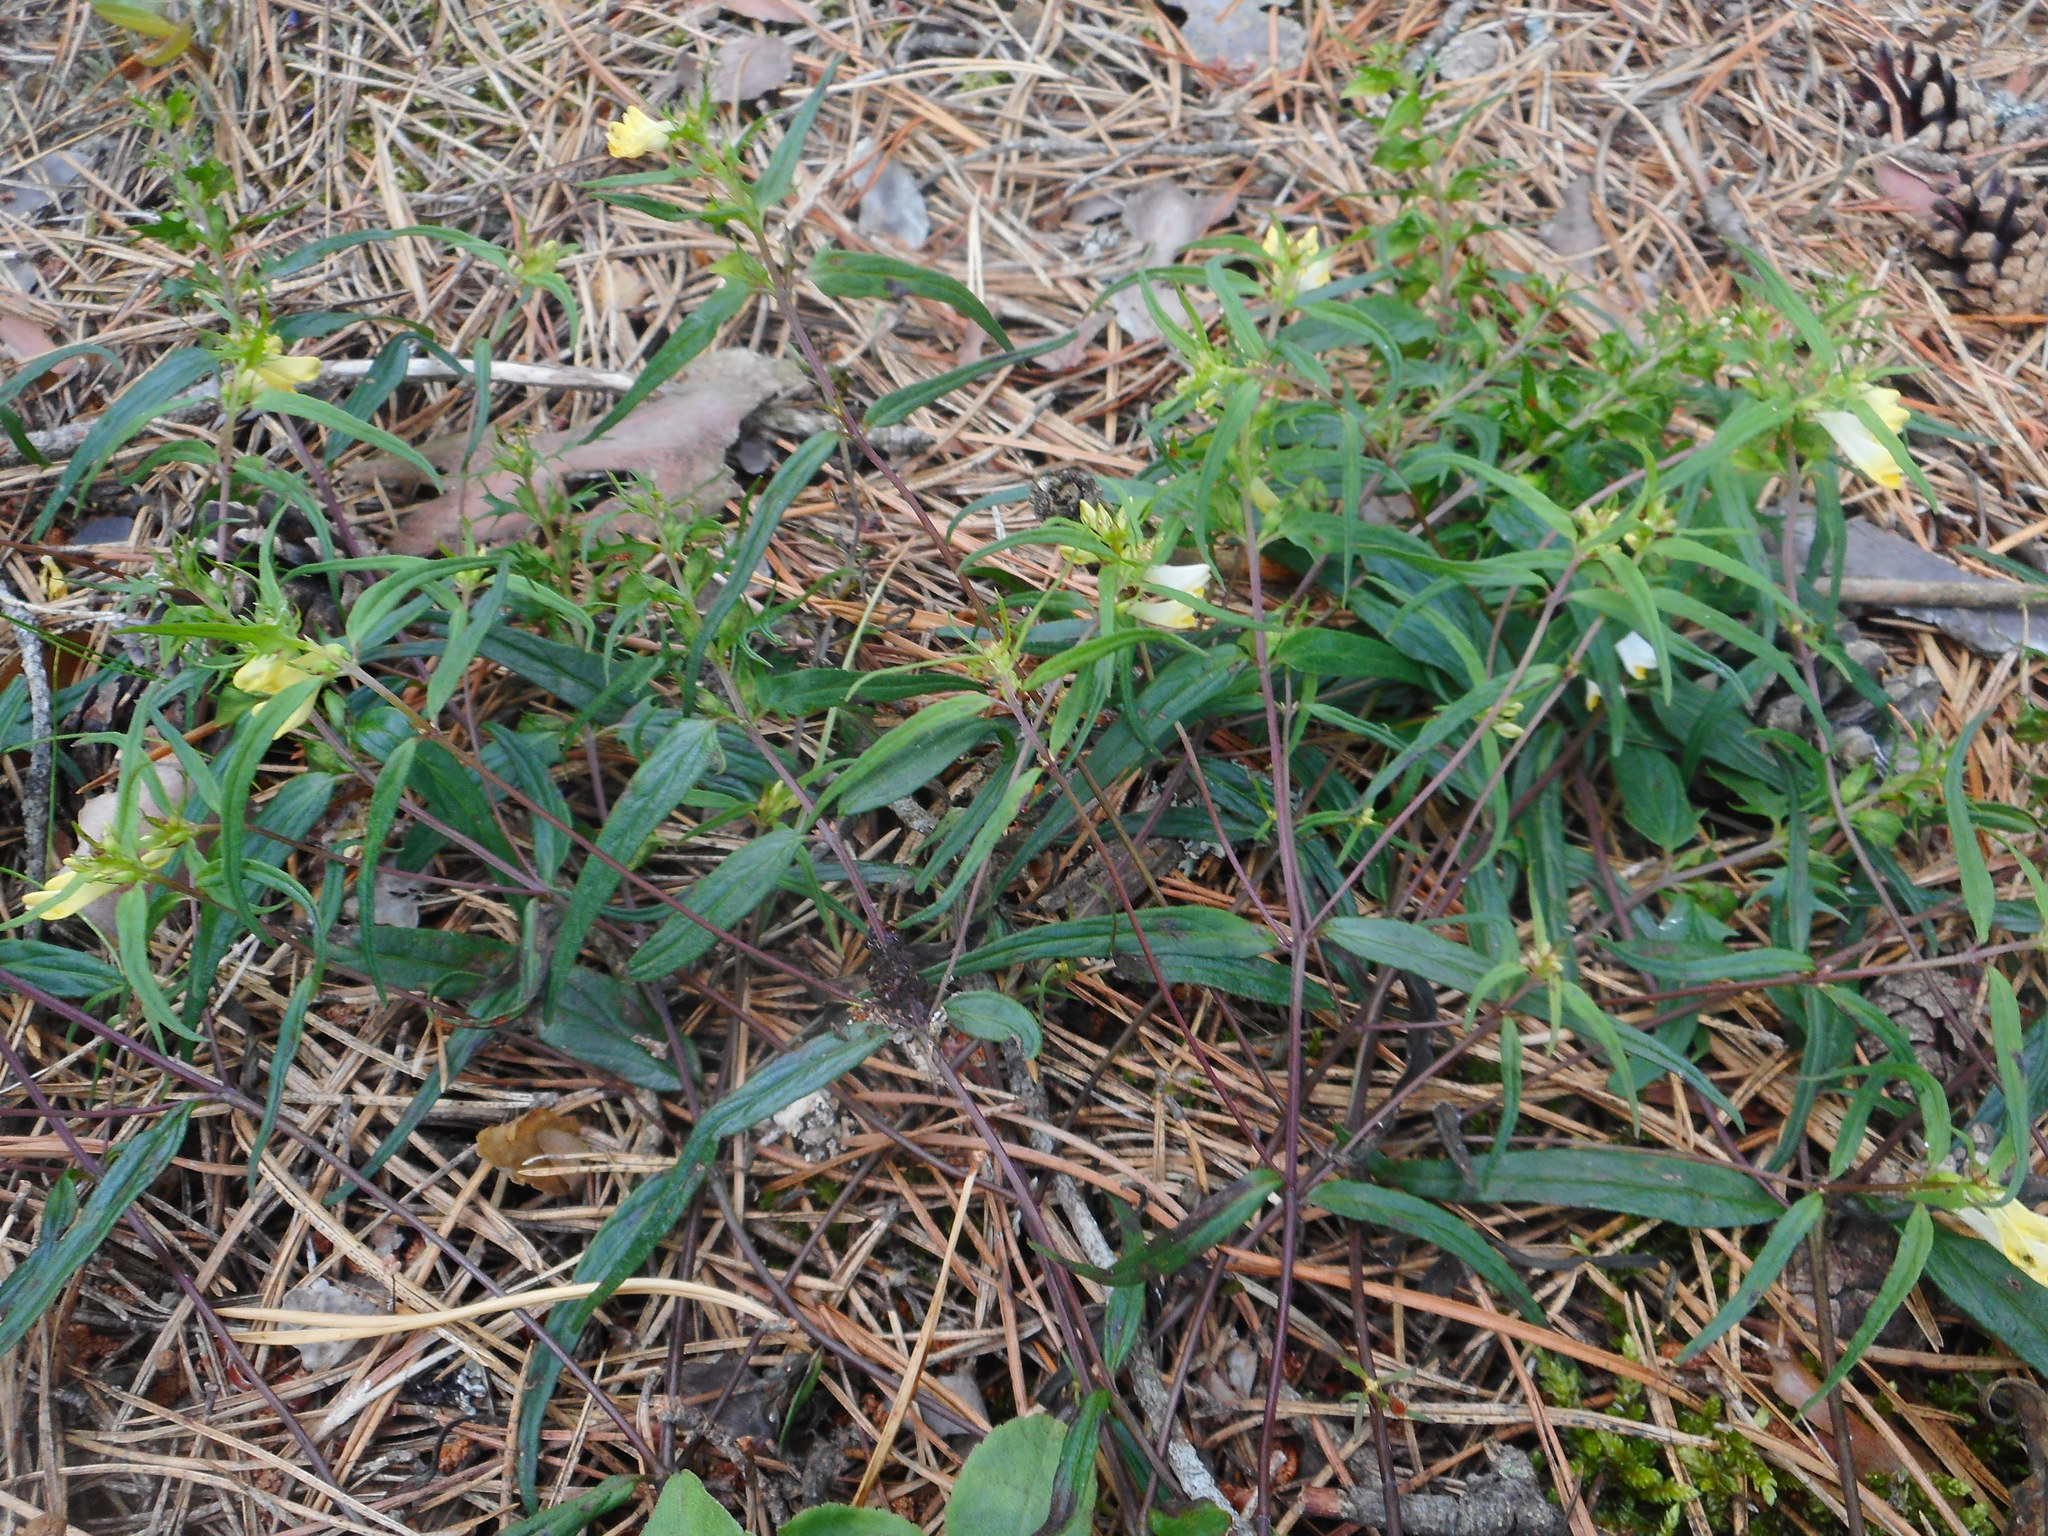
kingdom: Plantae
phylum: Tracheophyta
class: Magnoliopsida
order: Lamiales
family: Orobanchaceae
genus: Melampyrum
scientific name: Melampyrum pratense
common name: Common cow-wheat
